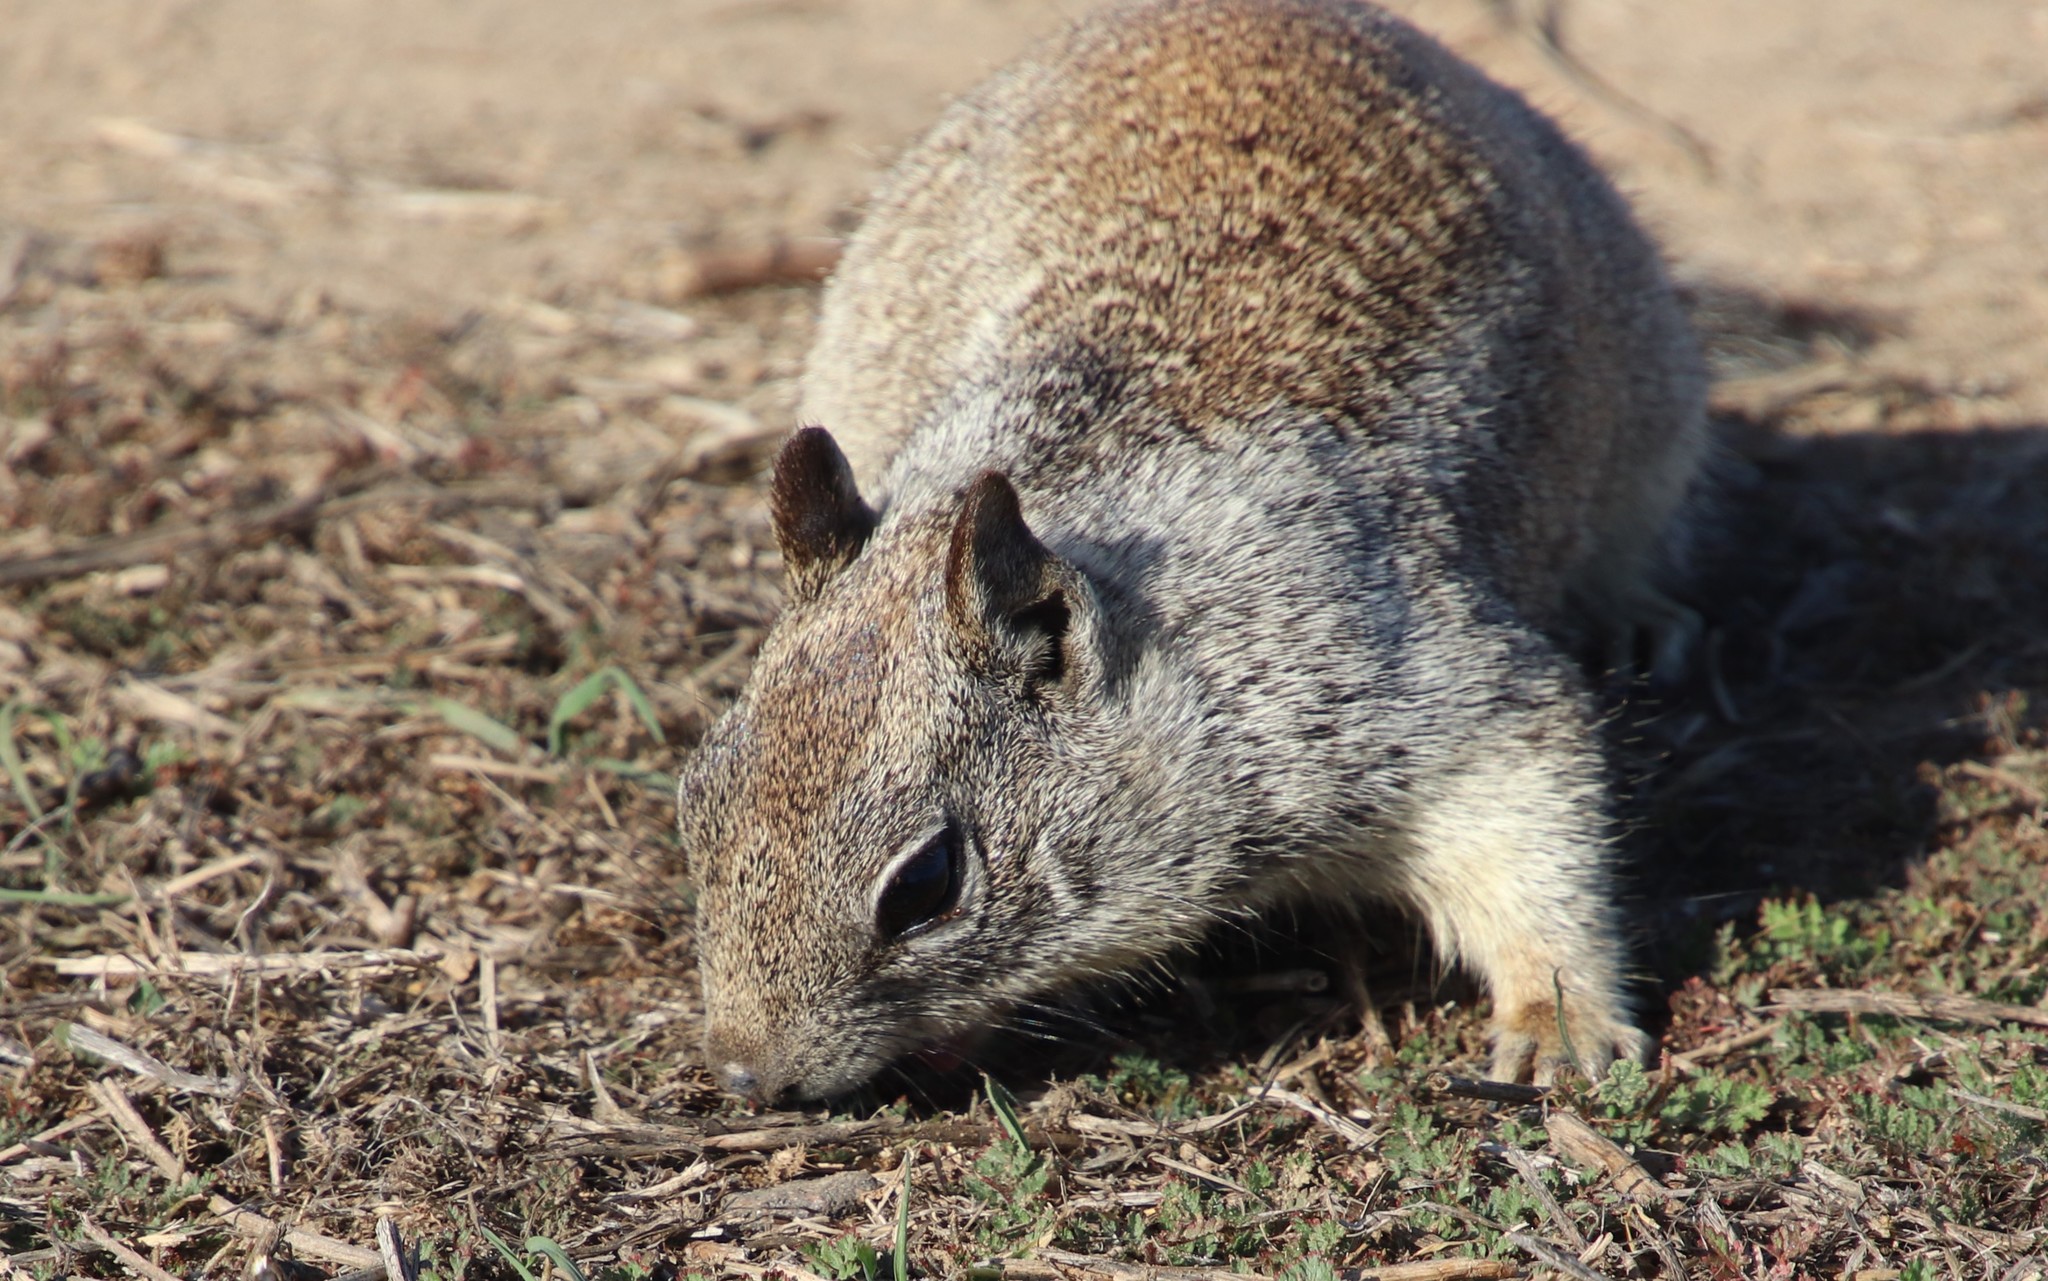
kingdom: Animalia
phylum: Chordata
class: Mammalia
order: Rodentia
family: Sciuridae
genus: Otospermophilus
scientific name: Otospermophilus beecheyi
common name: California ground squirrel
